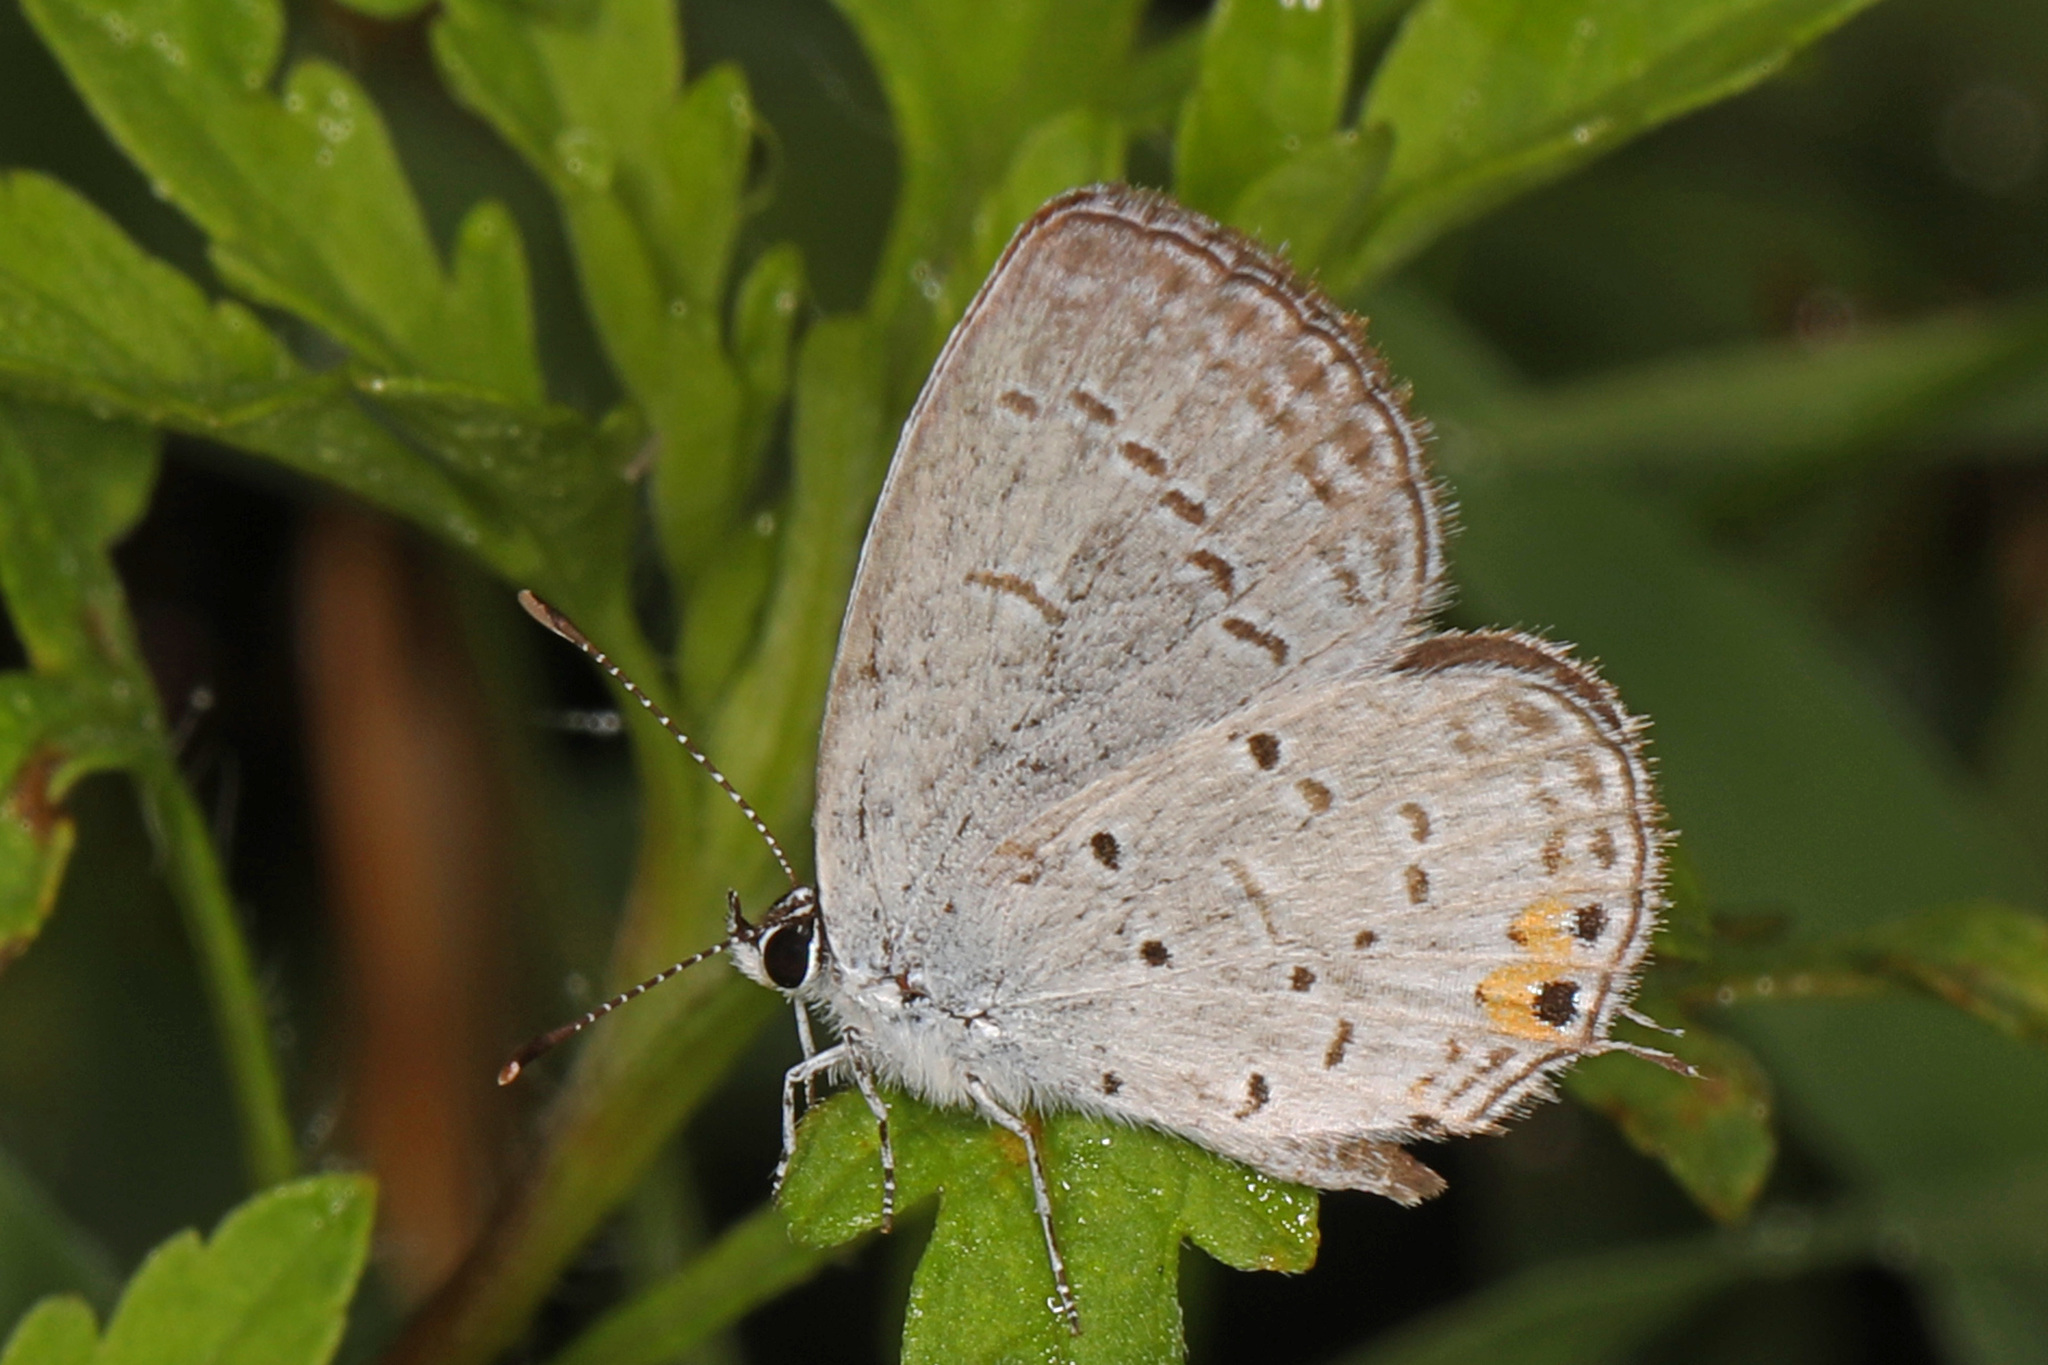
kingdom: Animalia
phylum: Arthropoda
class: Insecta
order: Lepidoptera
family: Lycaenidae
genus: Elkalyce
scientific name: Elkalyce comyntas
